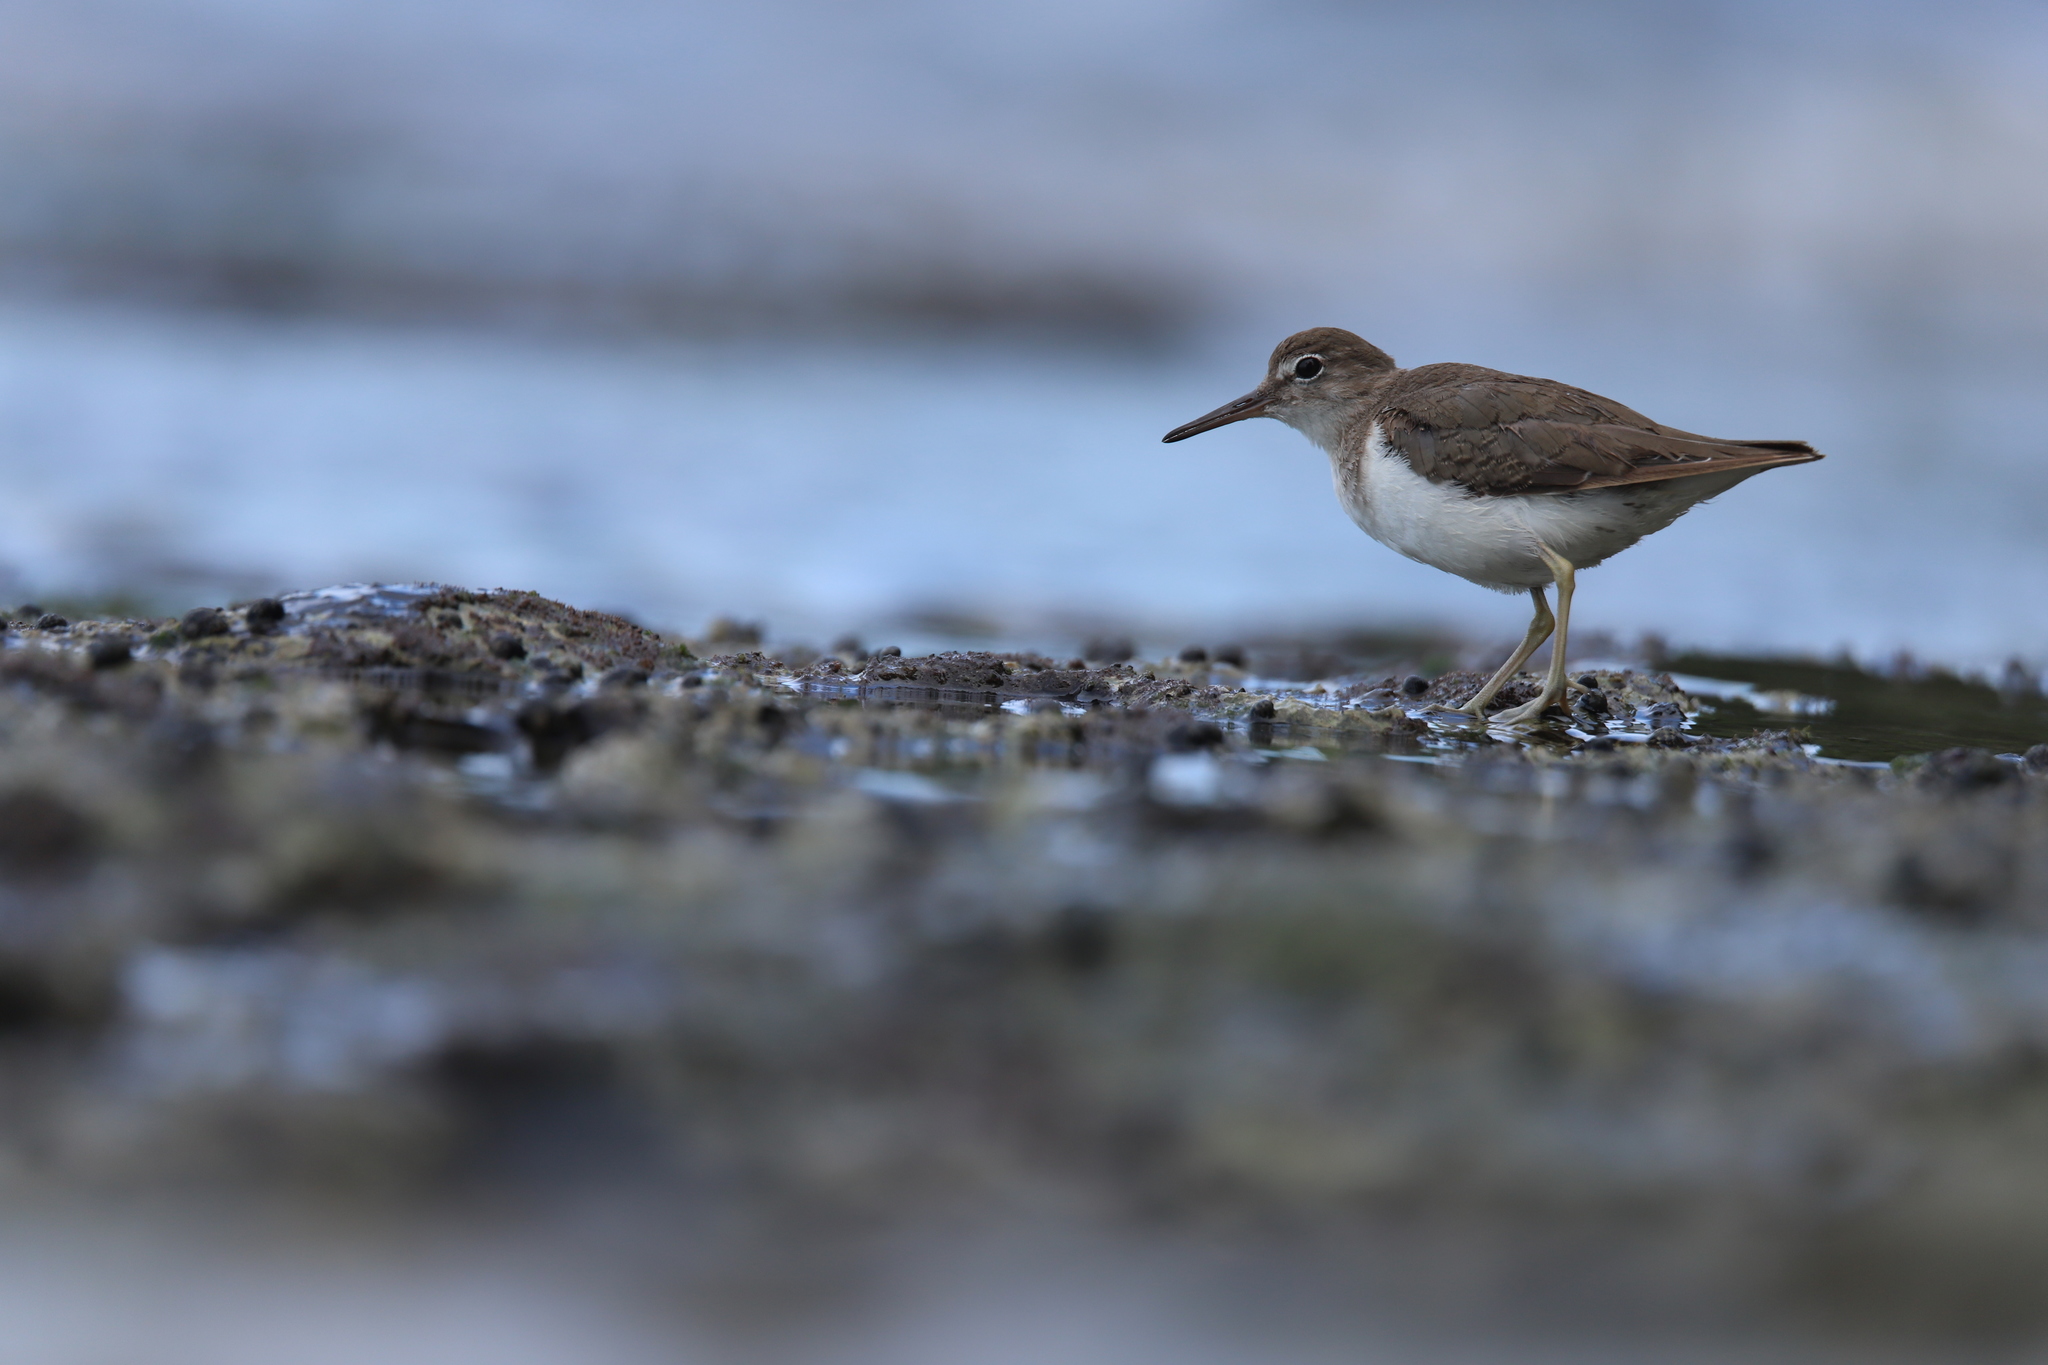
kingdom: Animalia
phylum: Chordata
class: Aves
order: Charadriiformes
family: Scolopacidae
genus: Actitis
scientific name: Actitis macularius
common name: Spotted sandpiper
